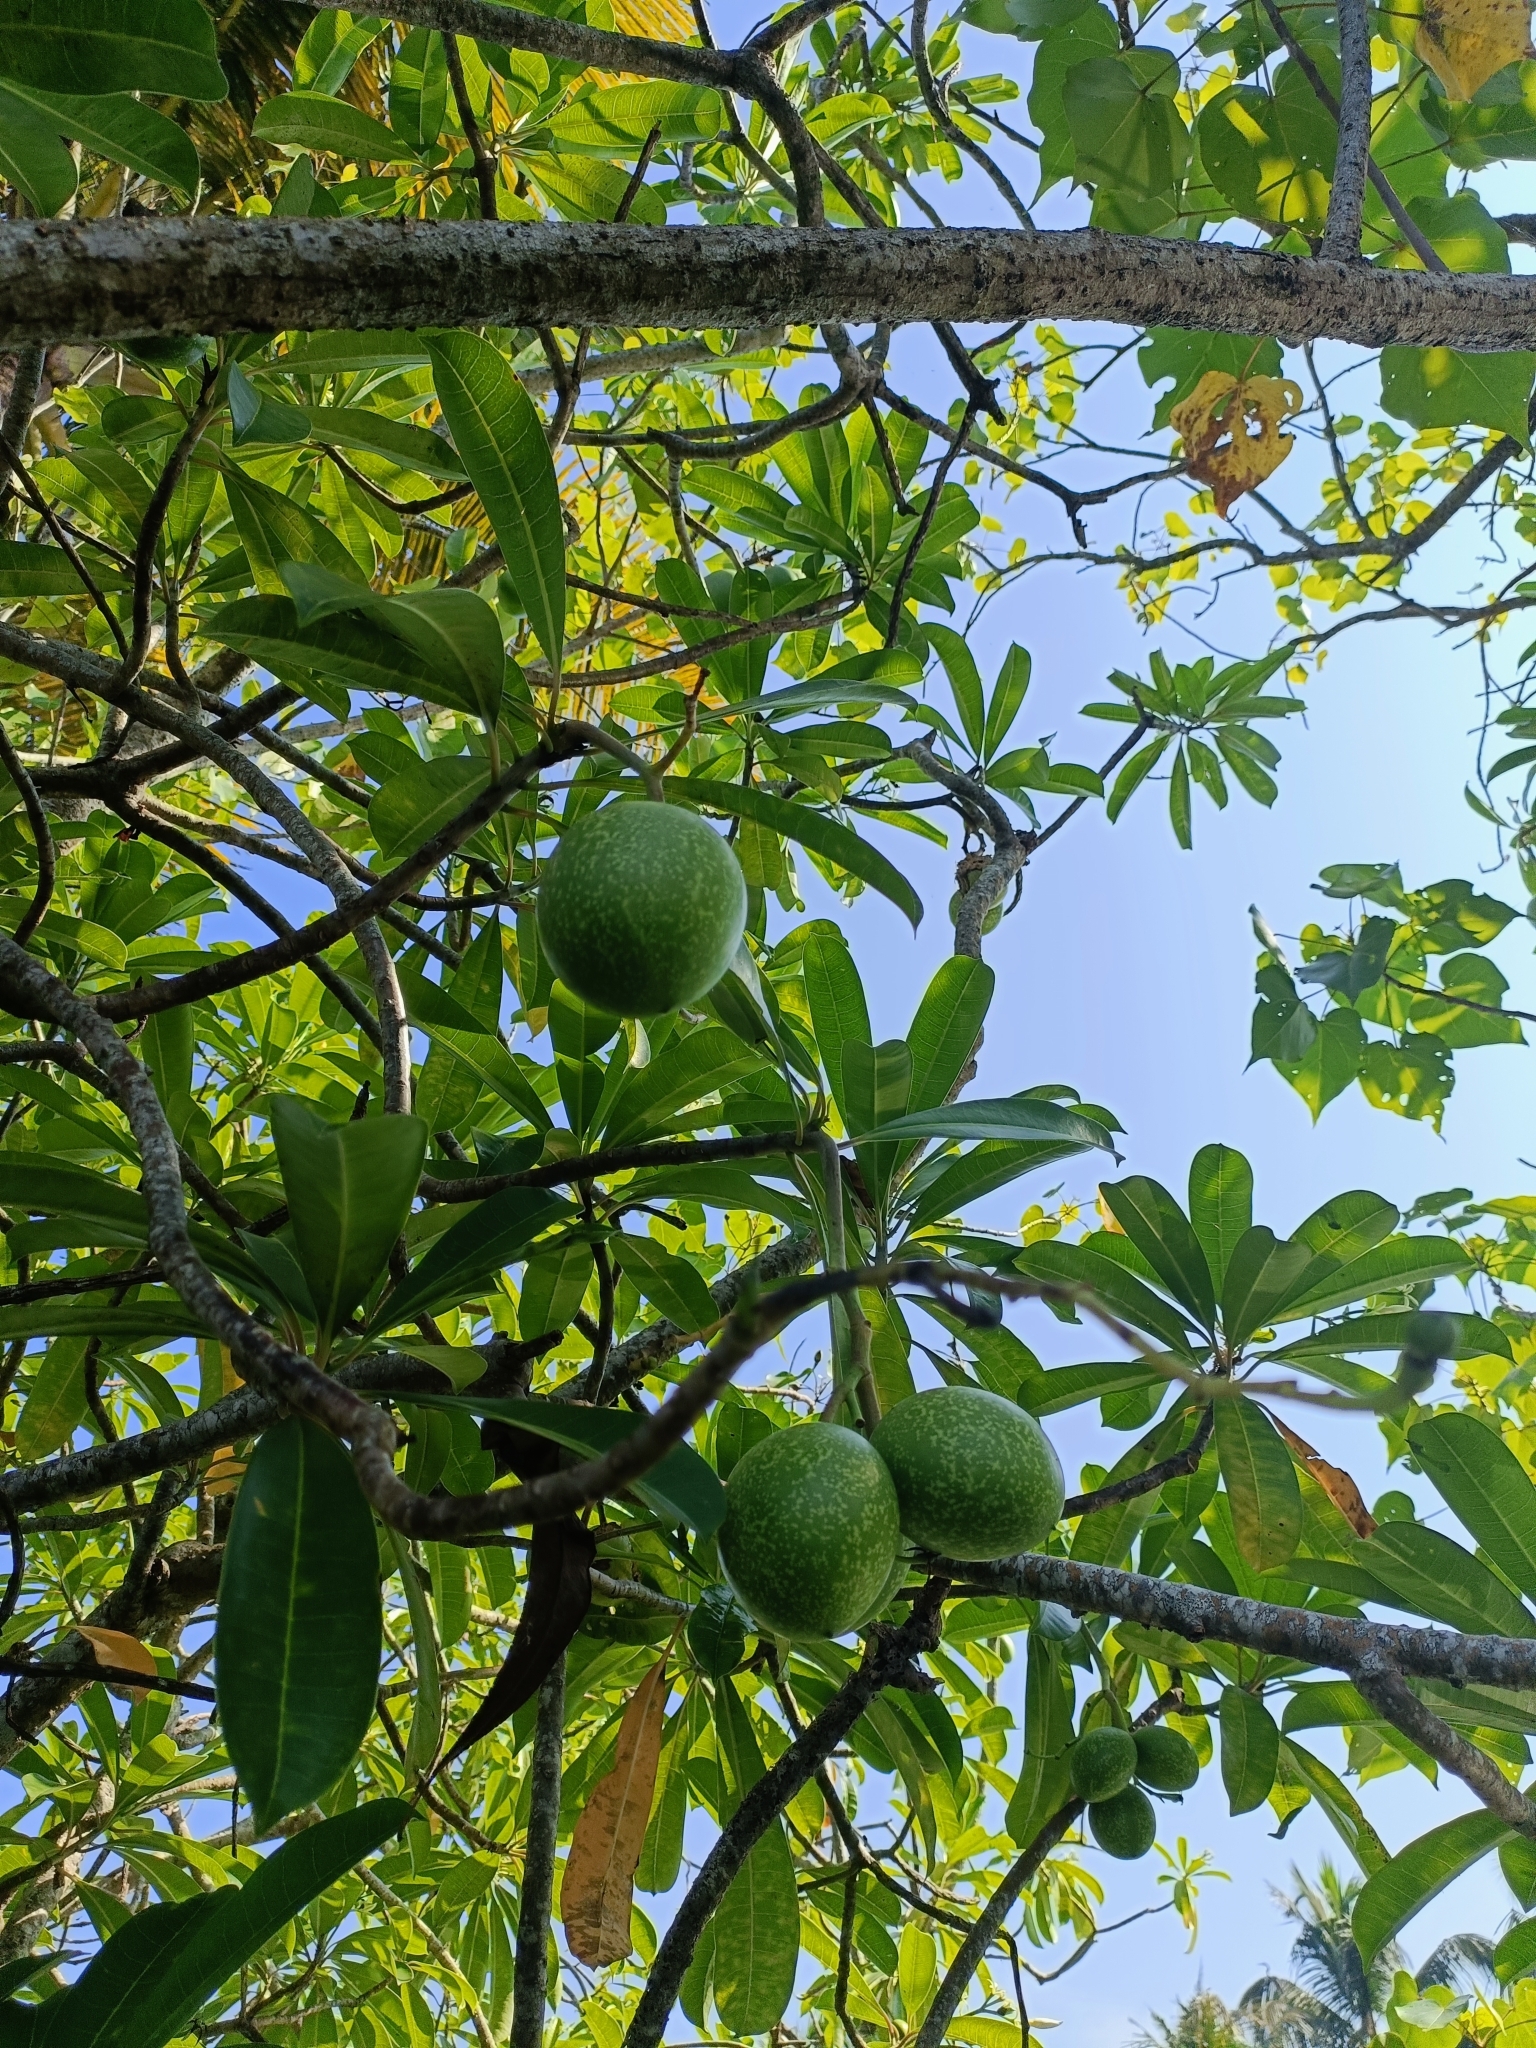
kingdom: Plantae
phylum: Tracheophyta
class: Magnoliopsida
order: Gentianales
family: Apocynaceae
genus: Cerbera
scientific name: Cerbera odollam
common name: Pong-pong
